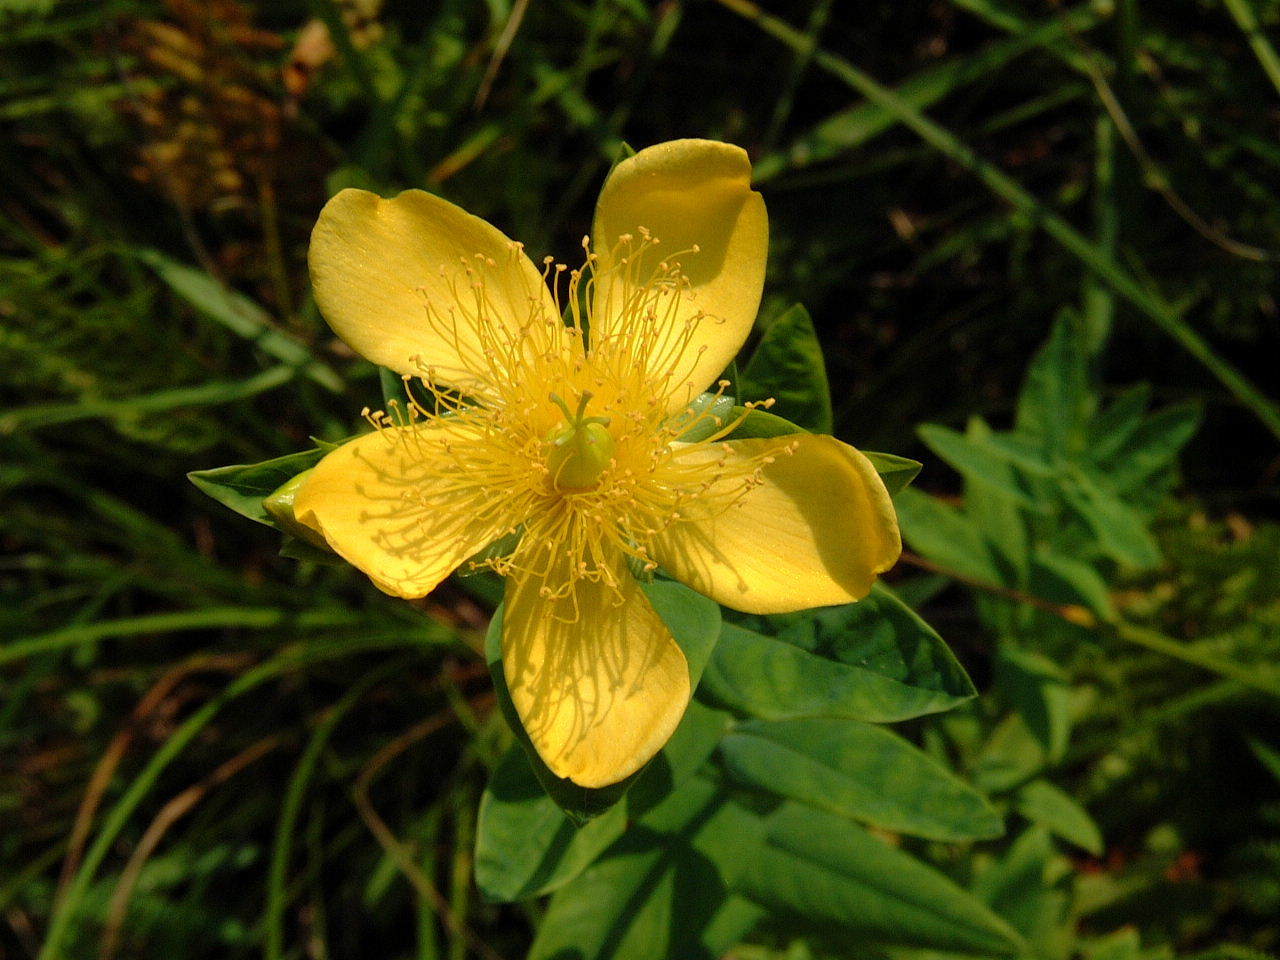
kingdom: Plantae
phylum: Tracheophyta
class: Magnoliopsida
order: Malpighiales
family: Hypericaceae
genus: Hypericum
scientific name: Hypericum ascyron
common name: Giant st. john's-wort
